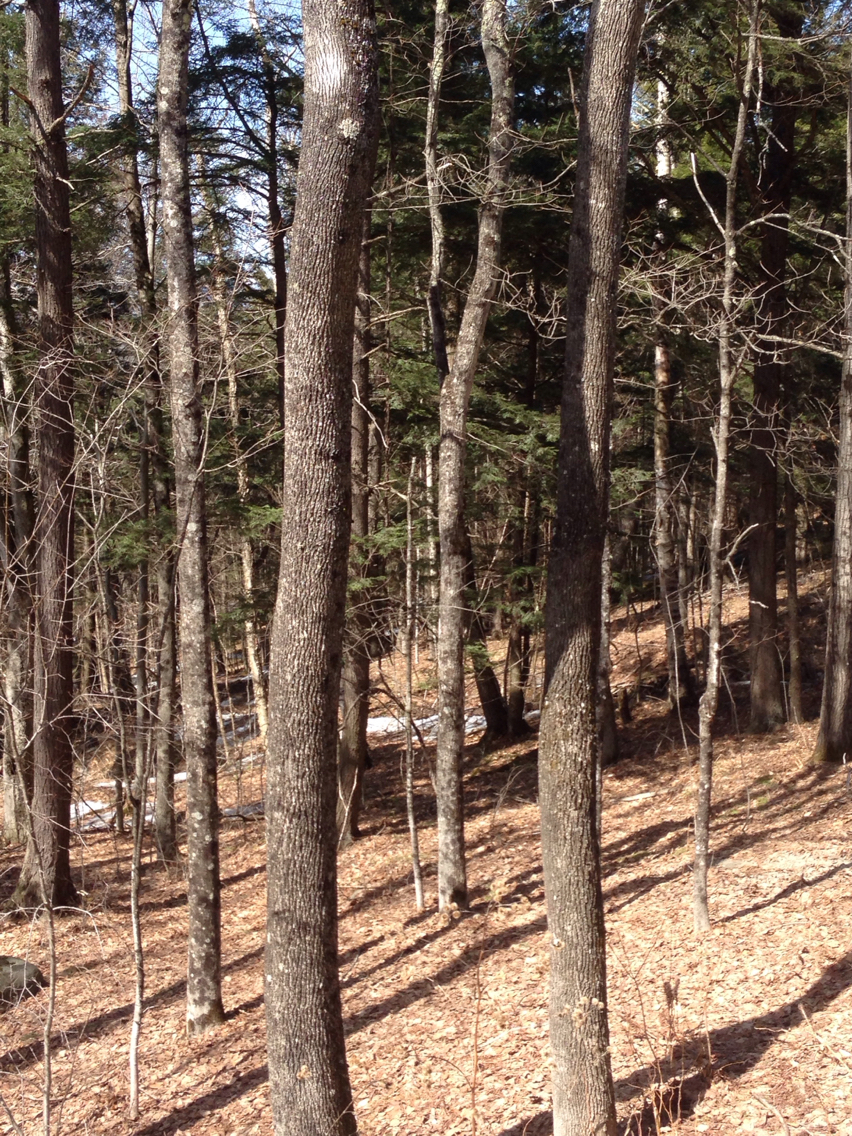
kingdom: Plantae
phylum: Tracheophyta
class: Magnoliopsida
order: Lamiales
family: Oleaceae
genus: Fraxinus
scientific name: Fraxinus americana
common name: White ash
